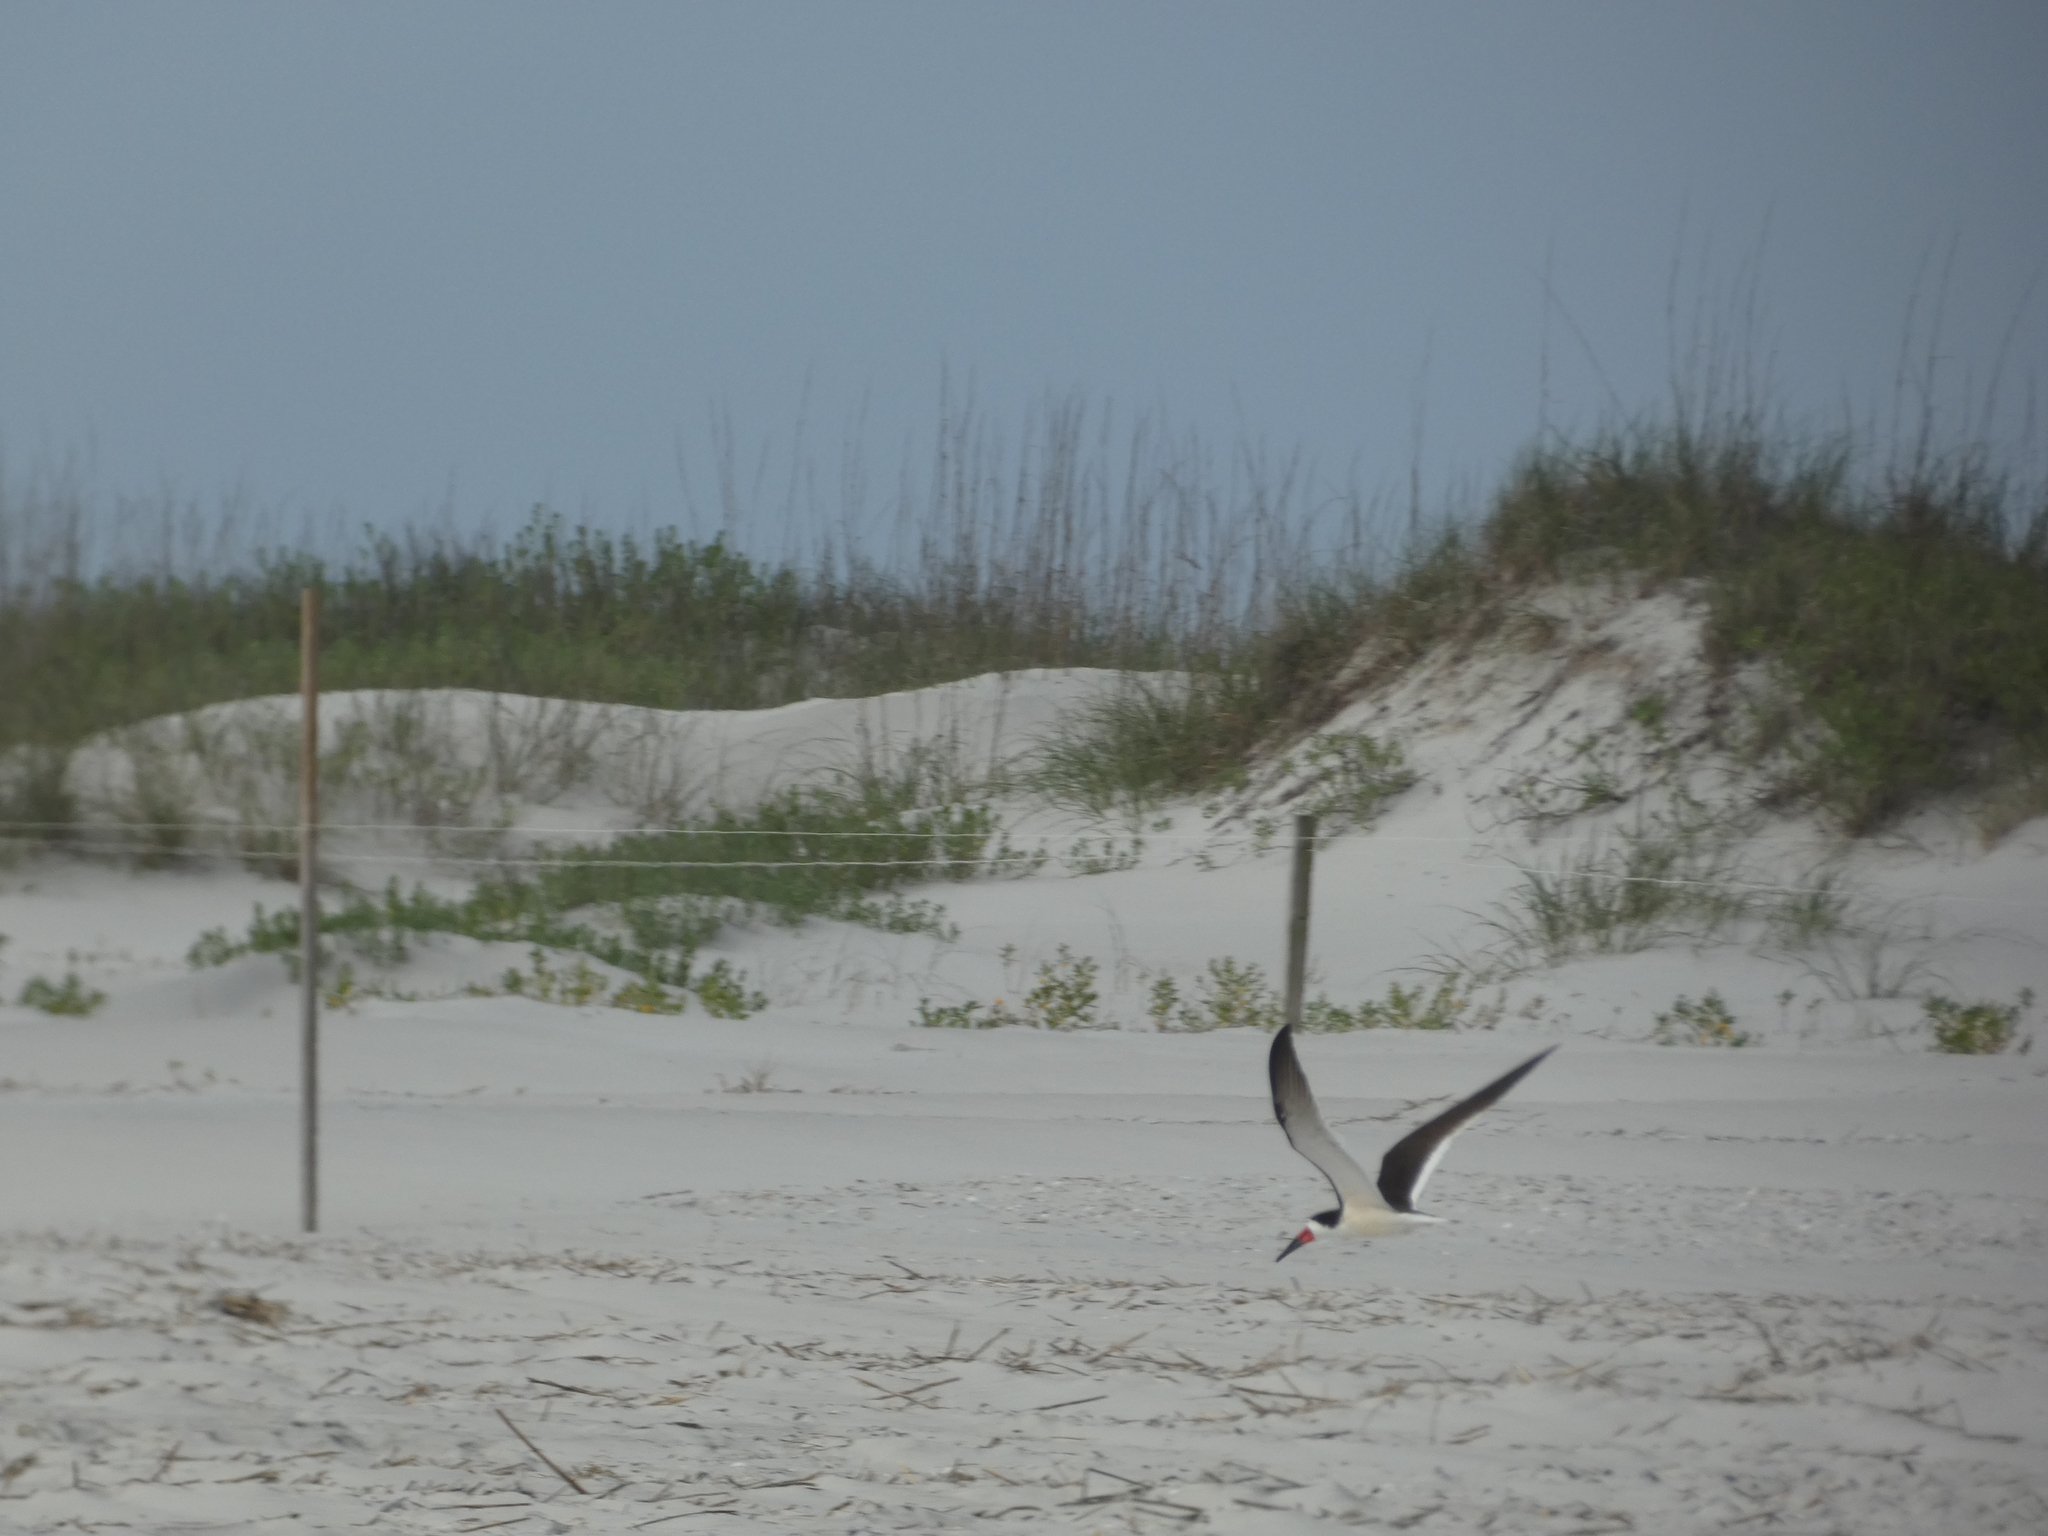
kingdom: Animalia
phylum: Chordata
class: Aves
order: Charadriiformes
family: Laridae
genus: Rynchops
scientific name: Rynchops niger
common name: Black skimmer
